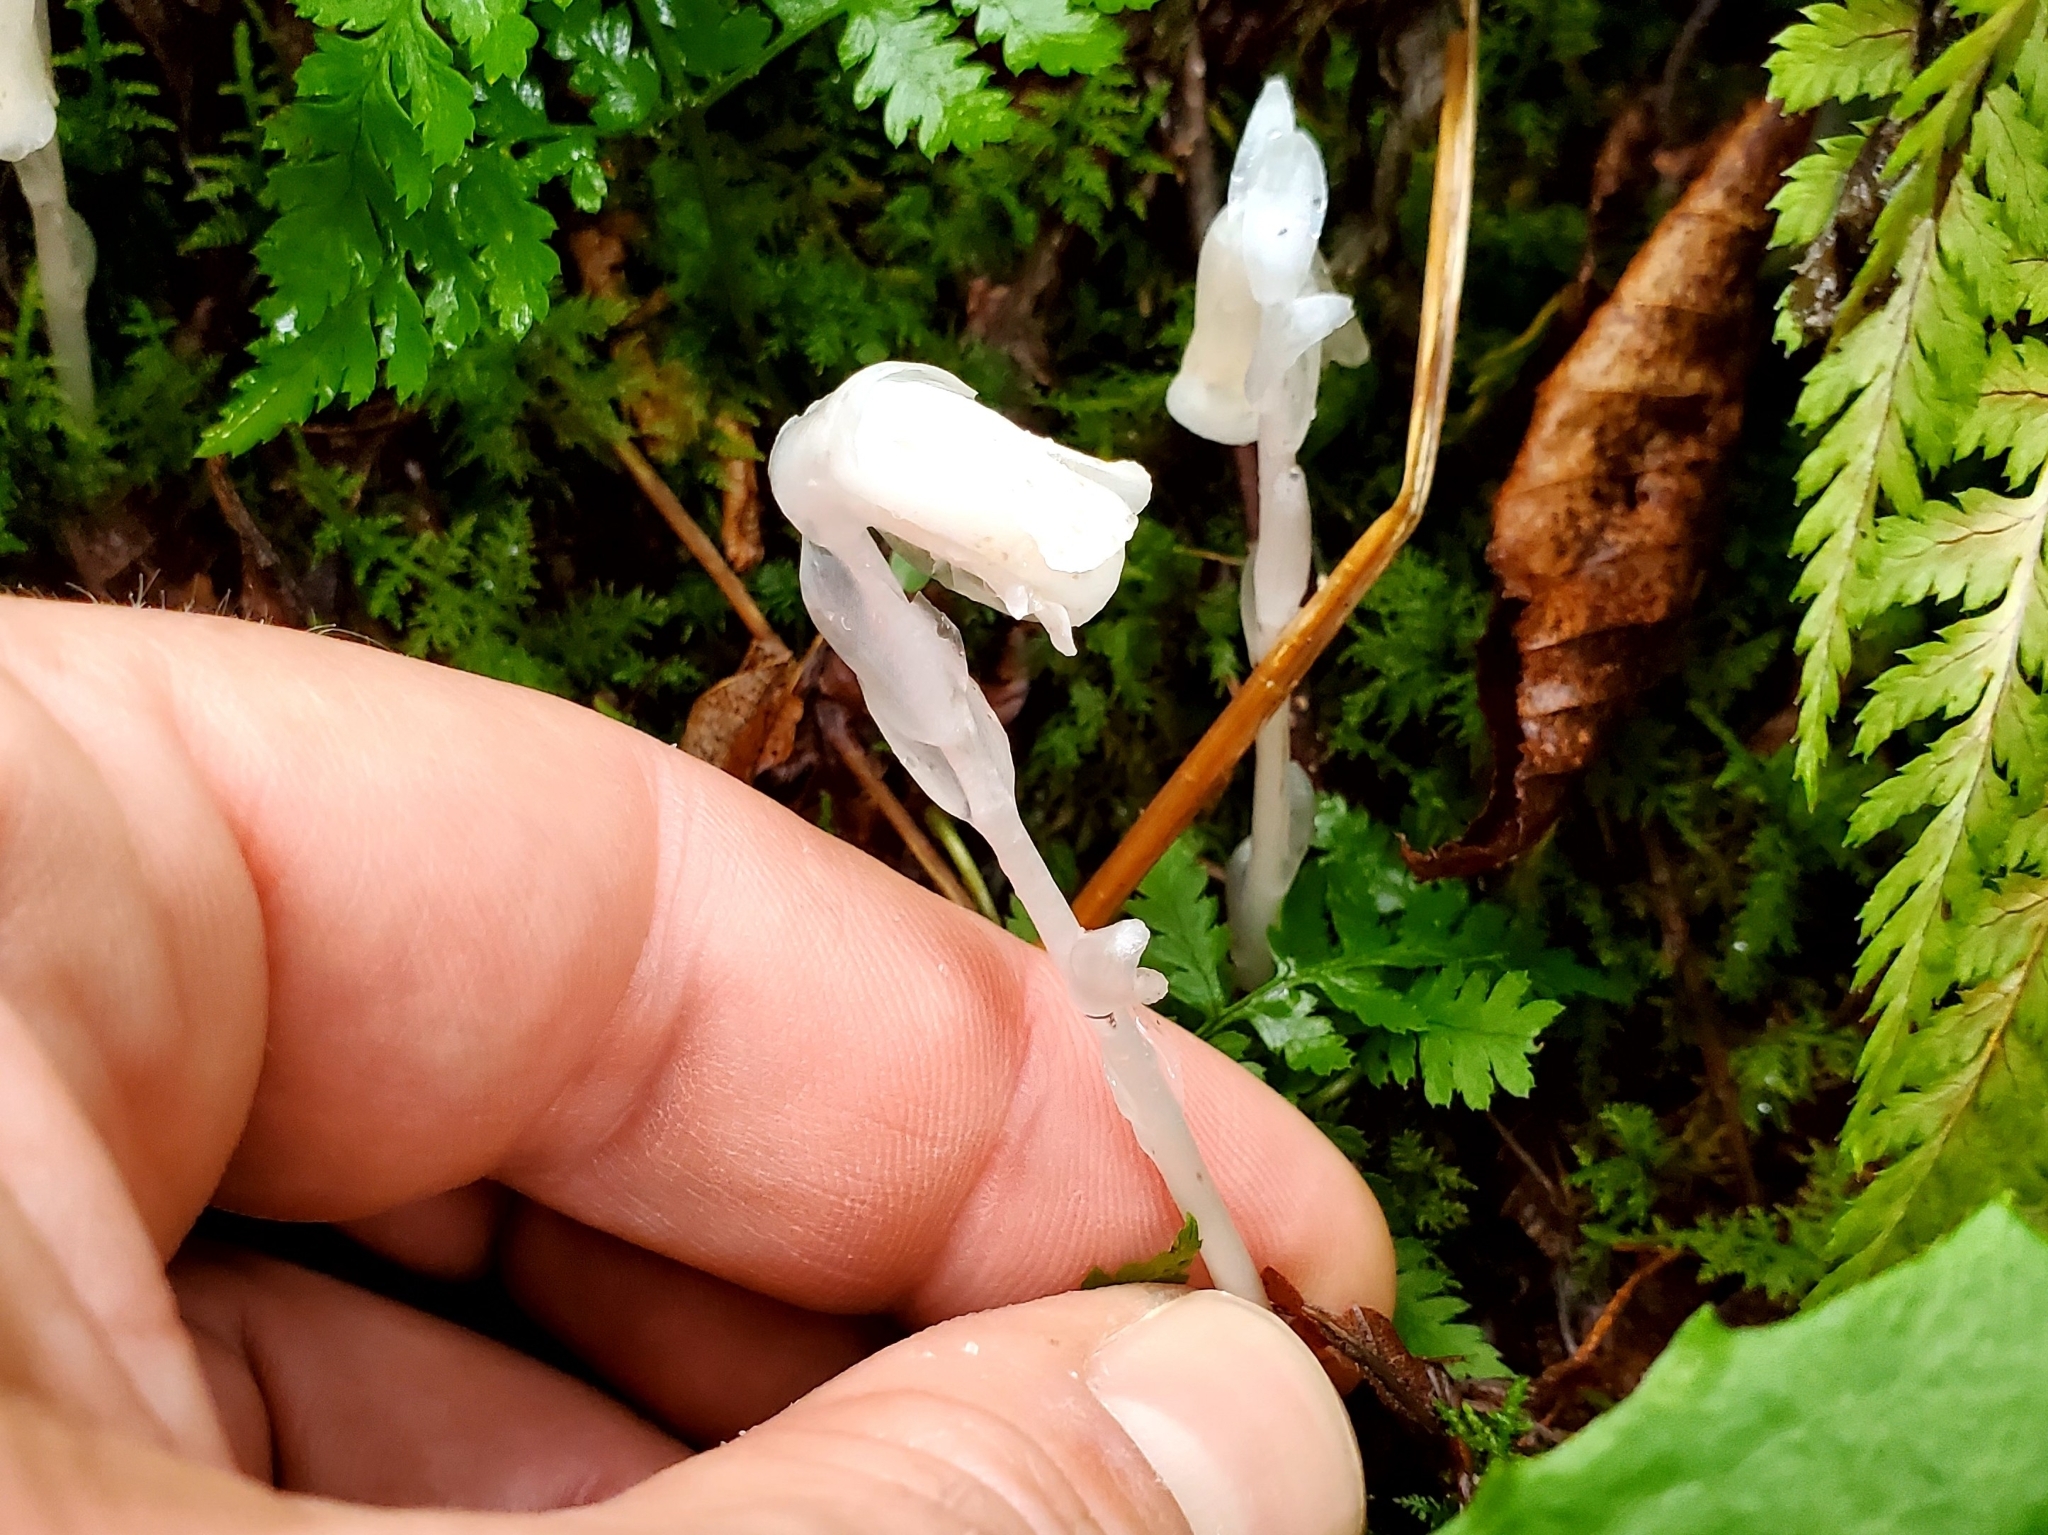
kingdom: Plantae
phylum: Tracheophyta
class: Magnoliopsida
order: Ericales
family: Ericaceae
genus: Monotropa
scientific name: Monotropa uniflora
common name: Convulsion root
